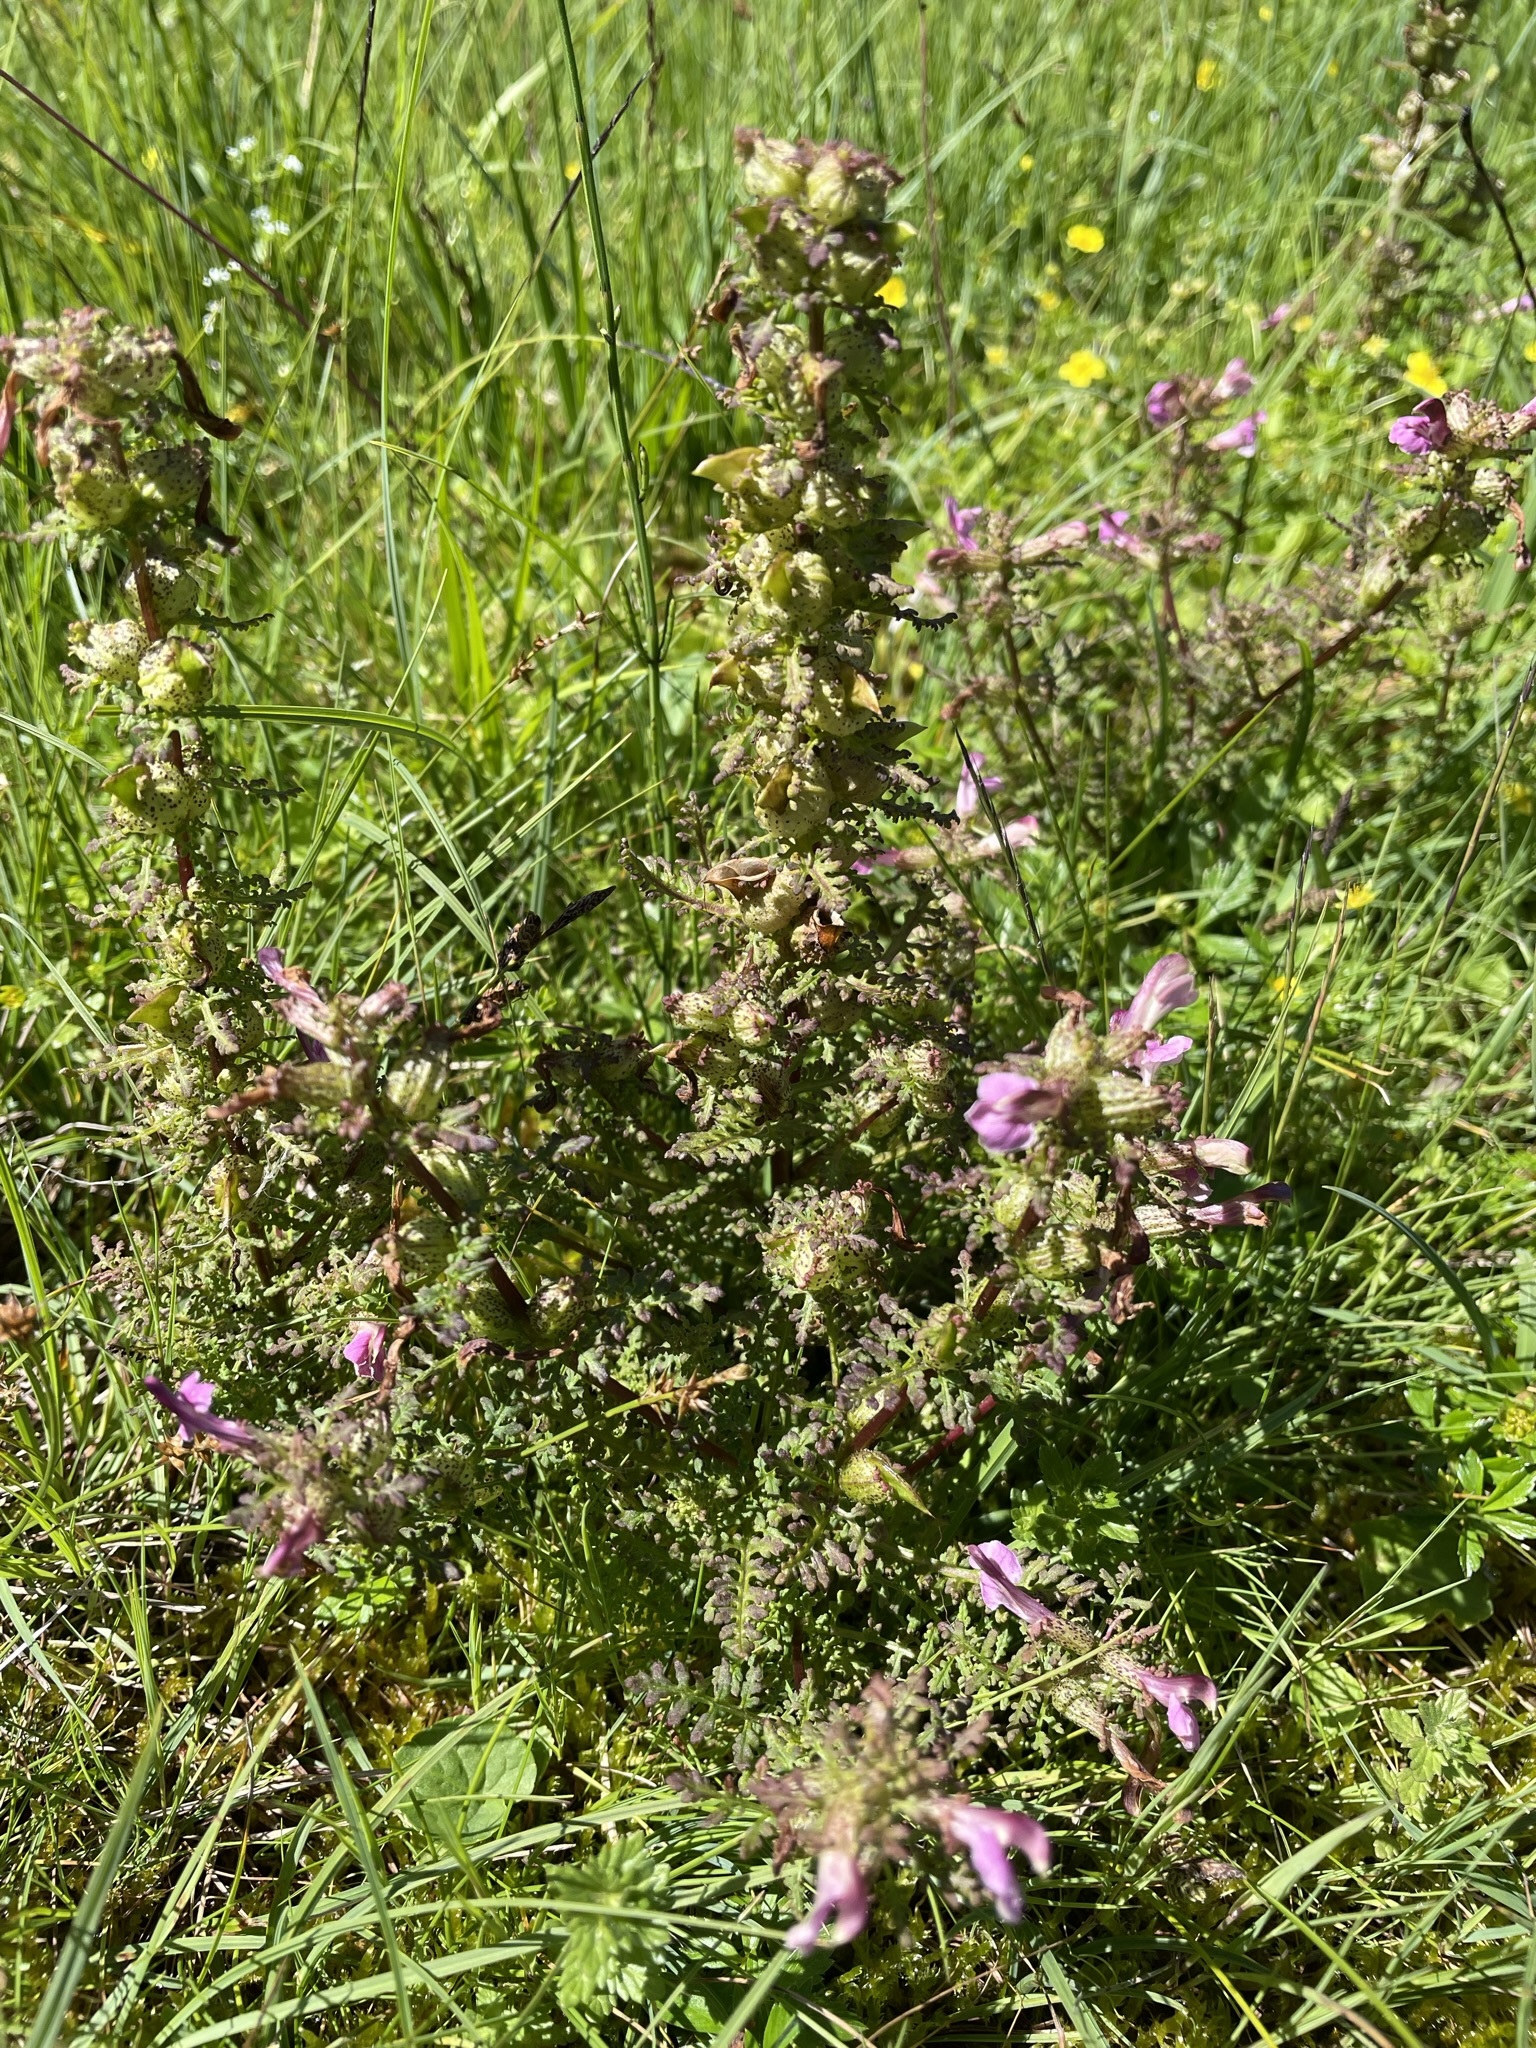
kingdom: Plantae
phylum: Tracheophyta
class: Magnoliopsida
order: Lamiales
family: Orobanchaceae
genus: Pedicularis
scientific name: Pedicularis palustris
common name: Marsh lousewort
